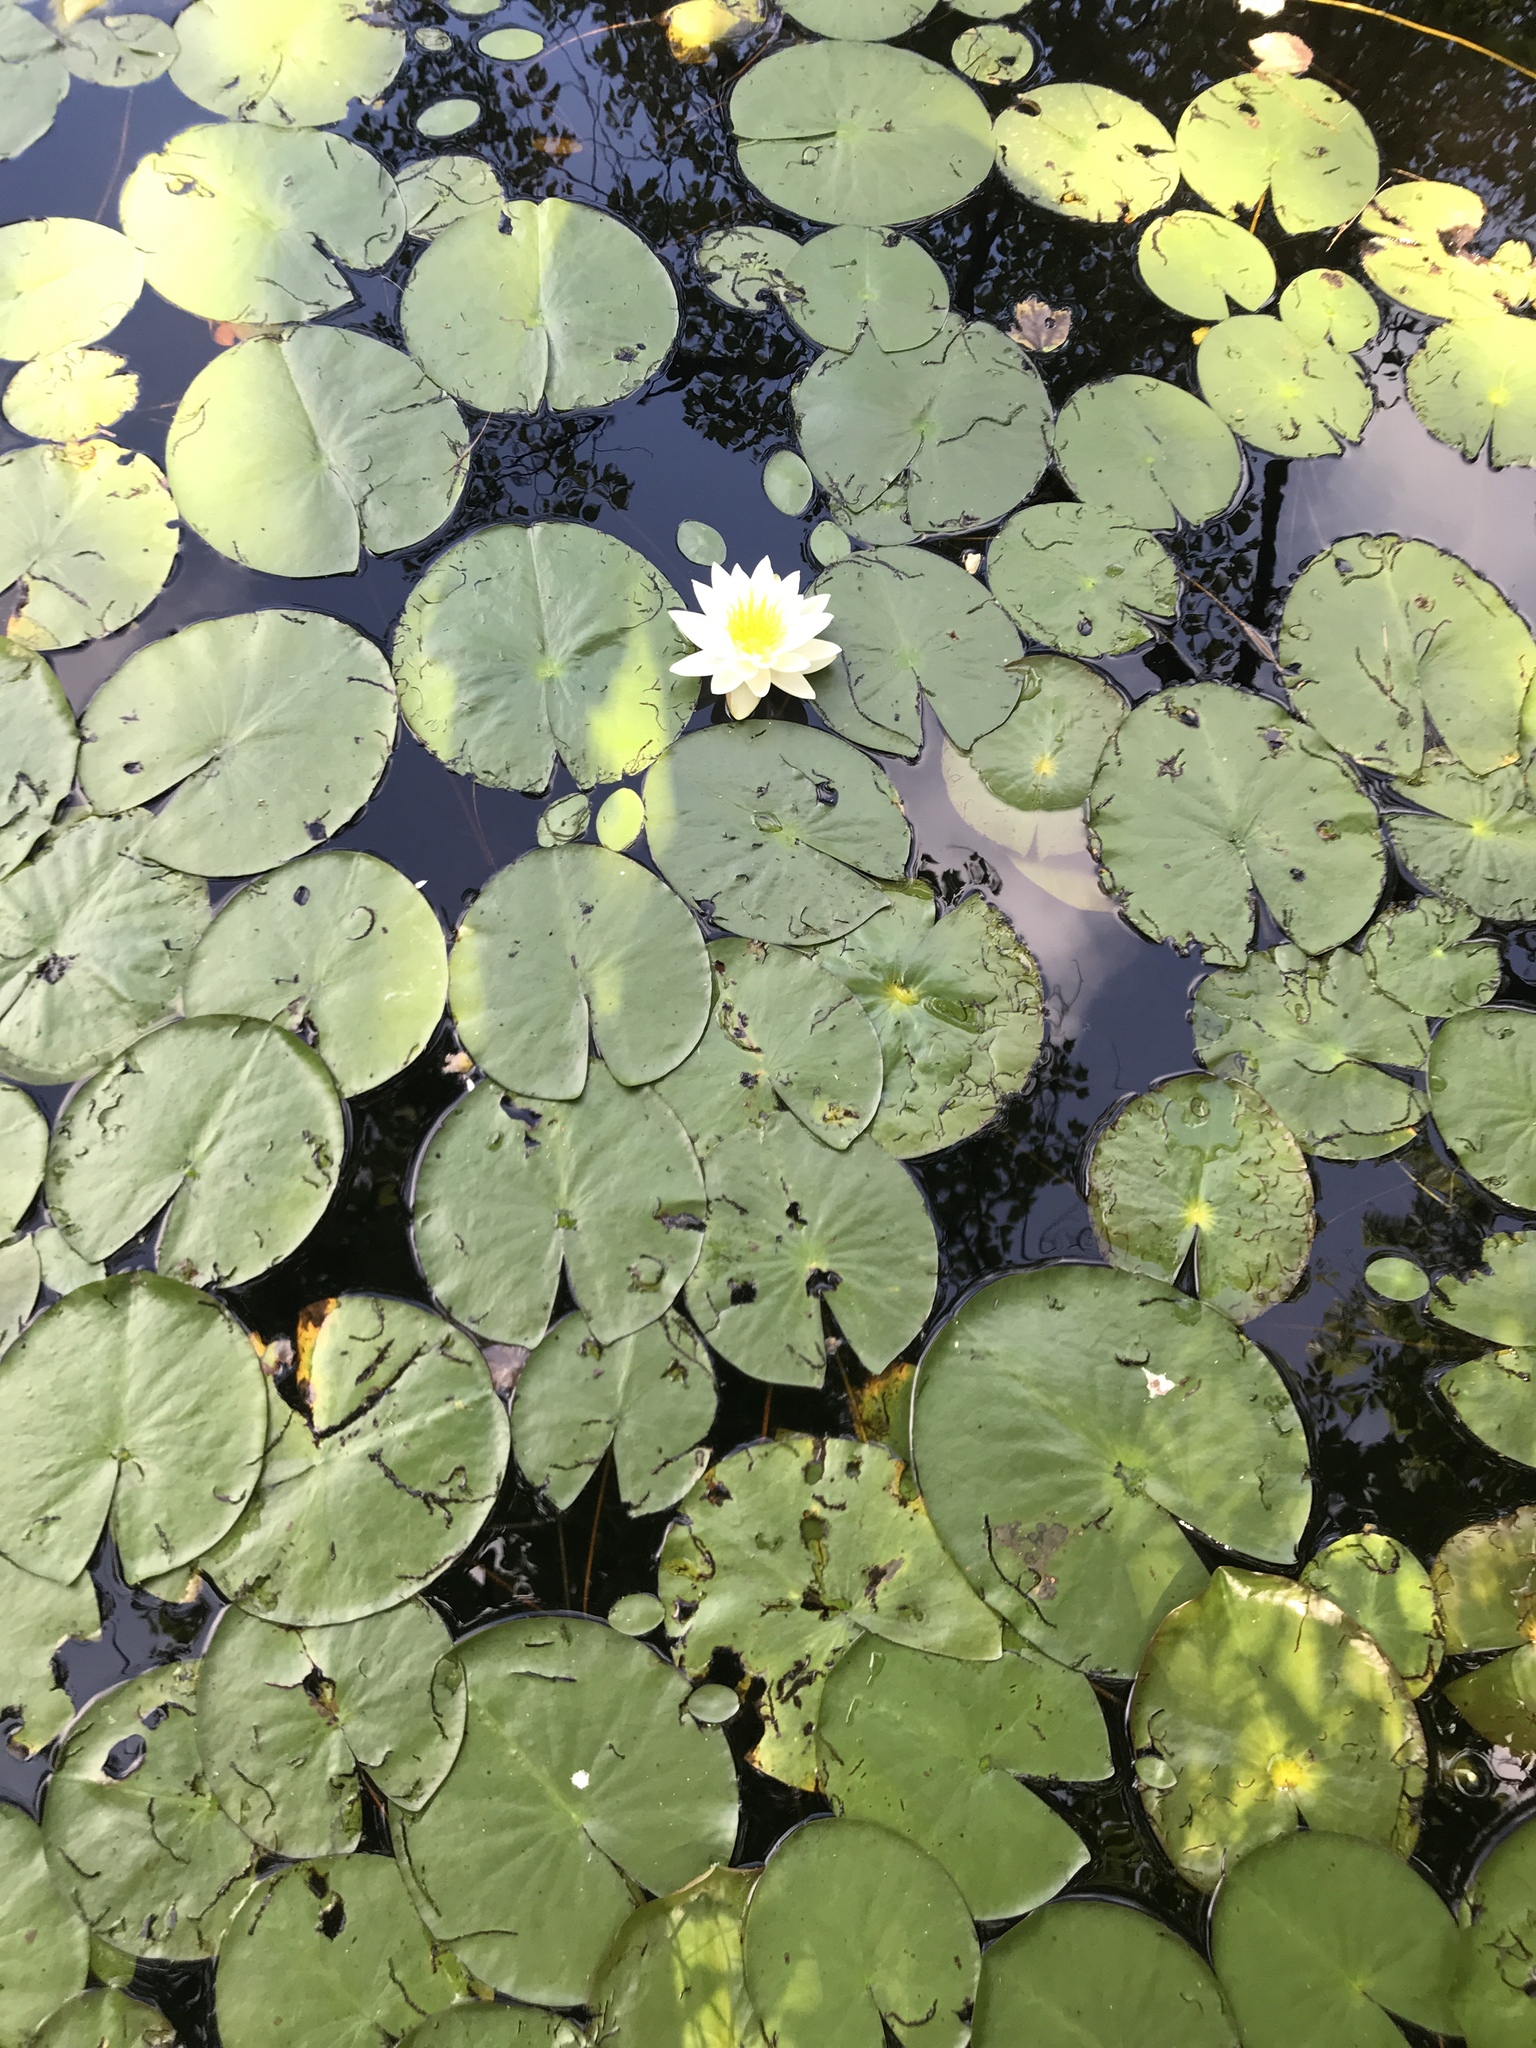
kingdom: Plantae
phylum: Tracheophyta
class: Magnoliopsida
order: Nymphaeales
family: Nymphaeaceae
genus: Nymphaea
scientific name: Nymphaea odorata
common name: Fragrant water-lily
